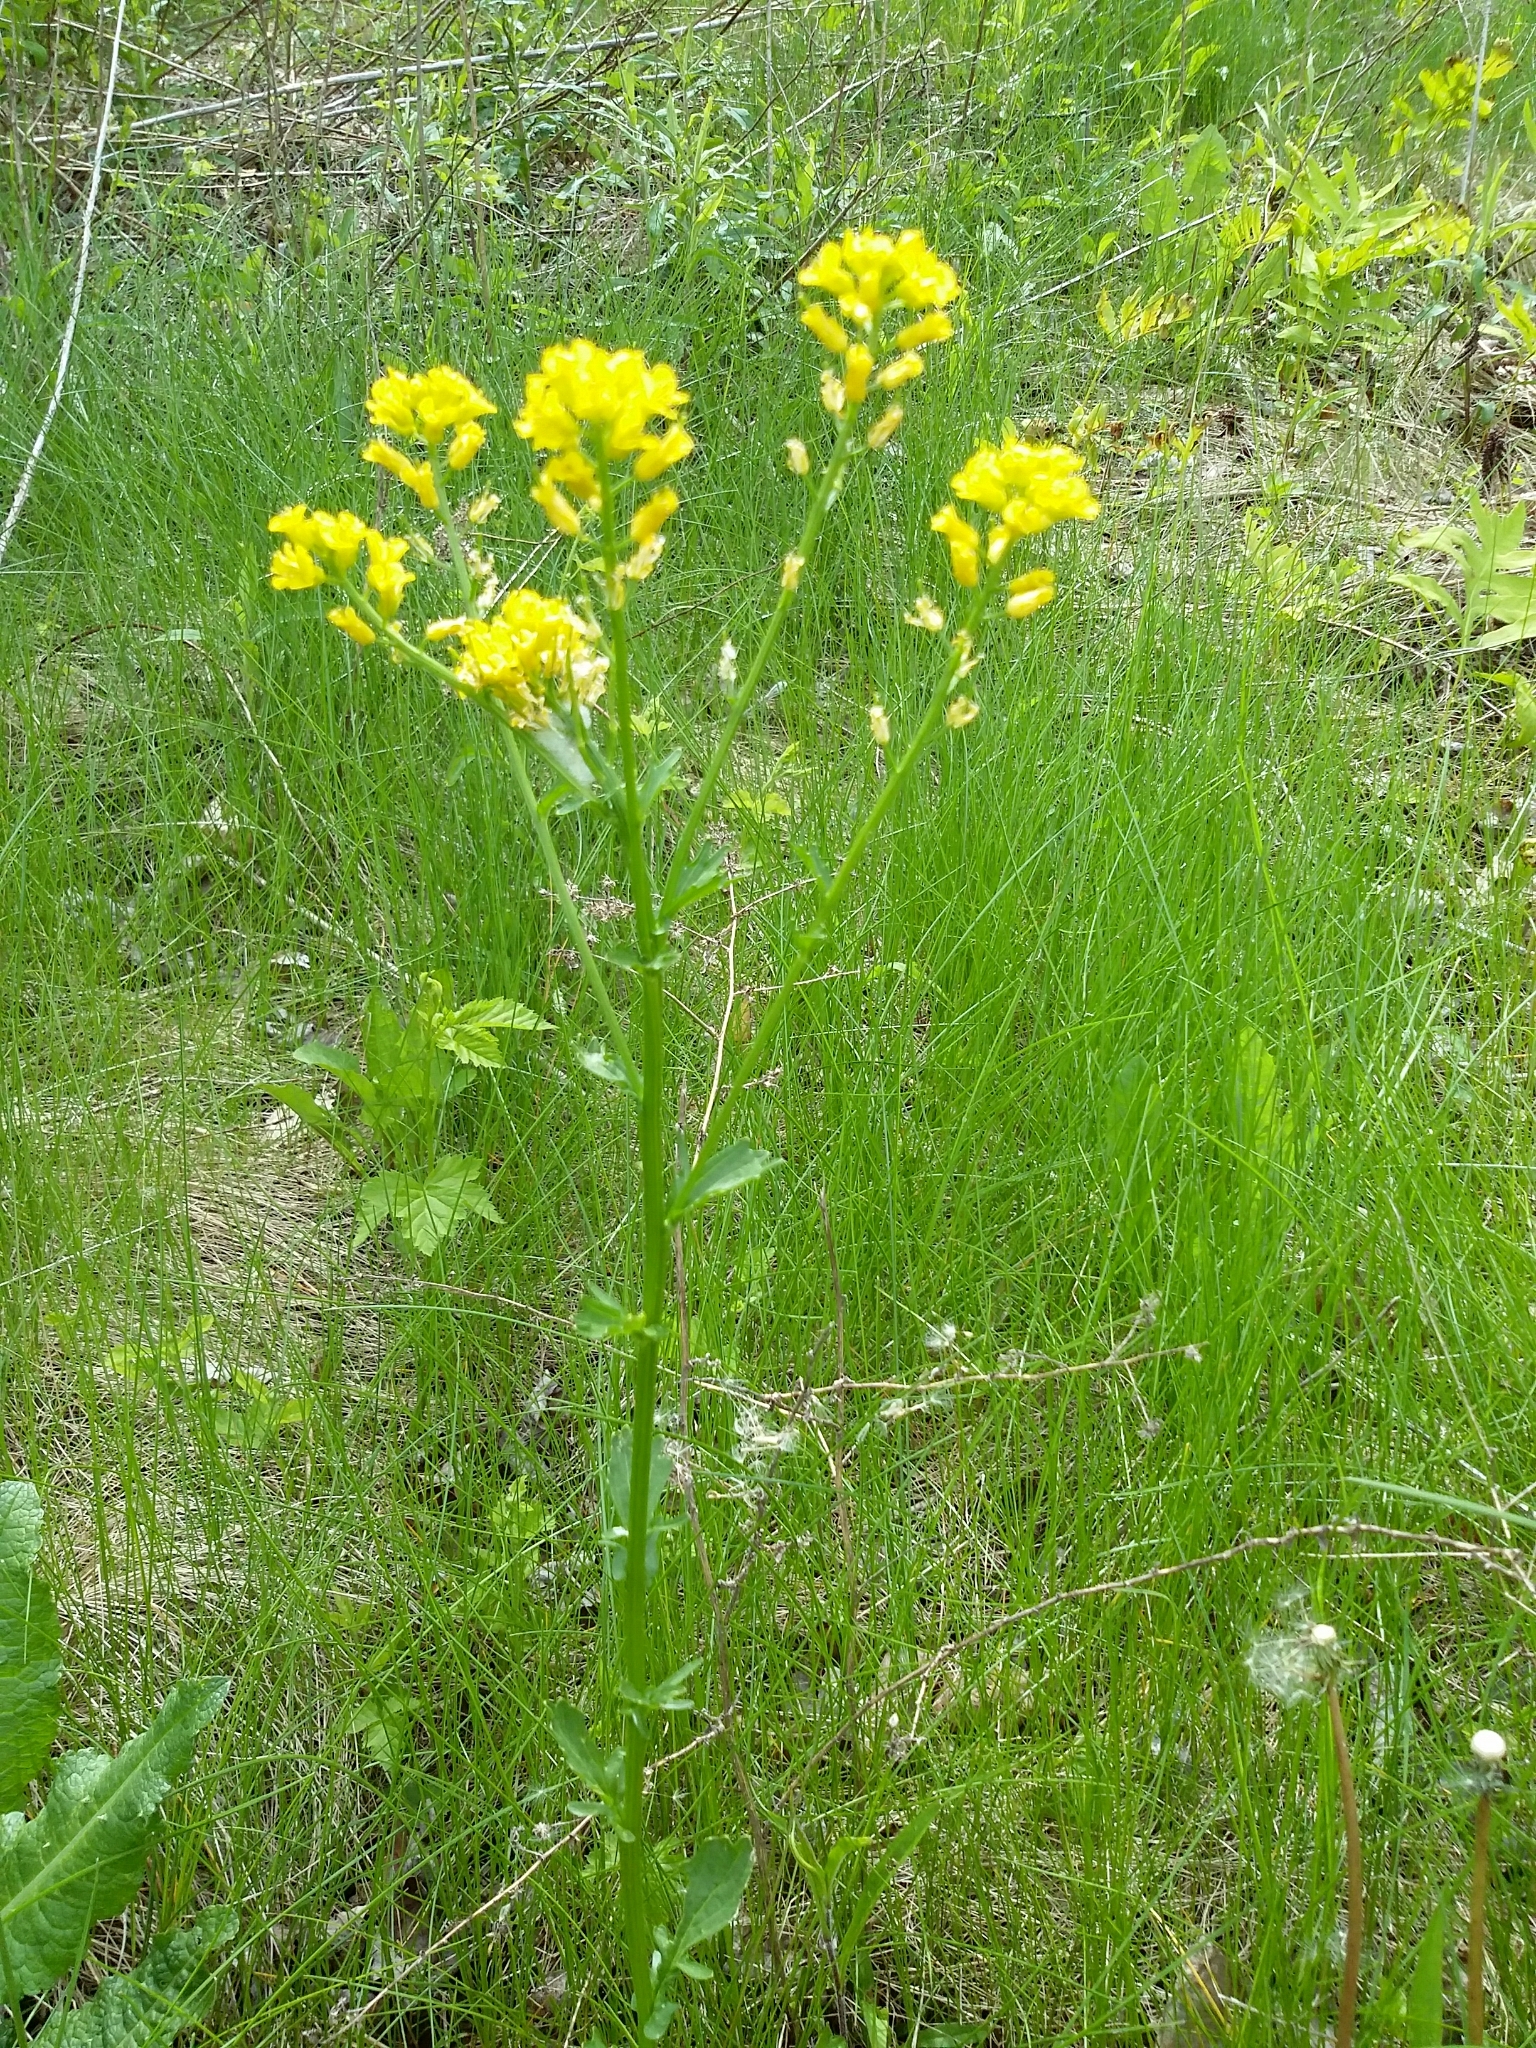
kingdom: Plantae
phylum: Tracheophyta
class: Magnoliopsida
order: Brassicales
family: Brassicaceae
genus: Barbarea
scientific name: Barbarea vulgaris
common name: Cressy-greens
